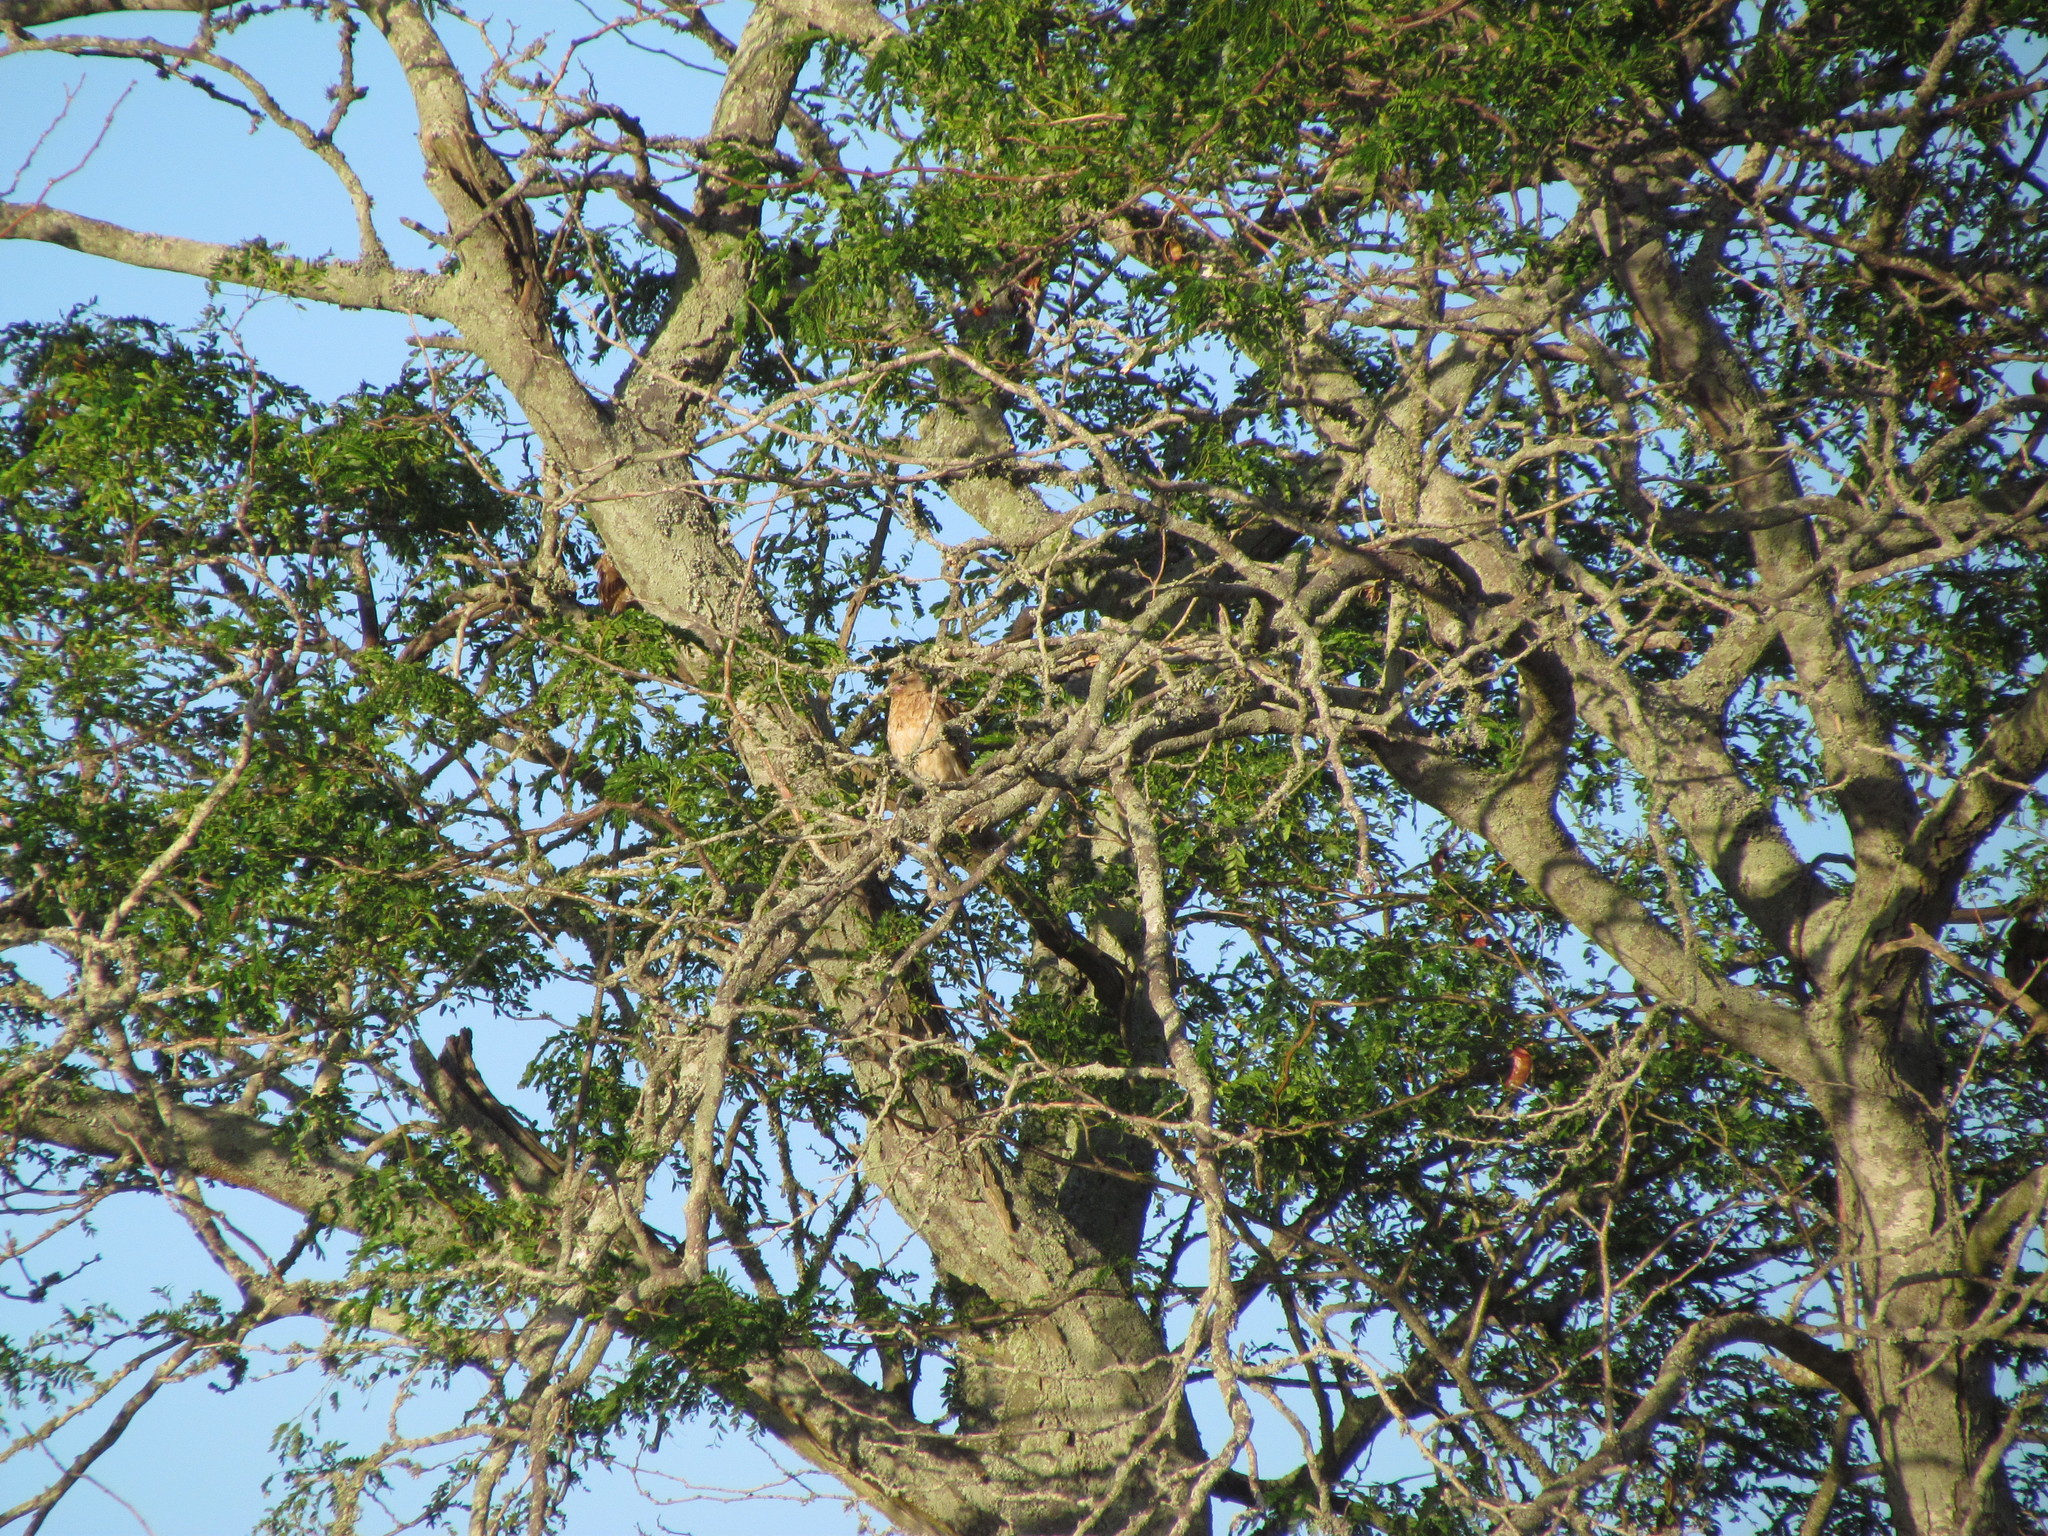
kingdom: Animalia
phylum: Chordata
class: Aves
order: Falconiformes
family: Falconidae
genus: Daptrius
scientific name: Daptrius
